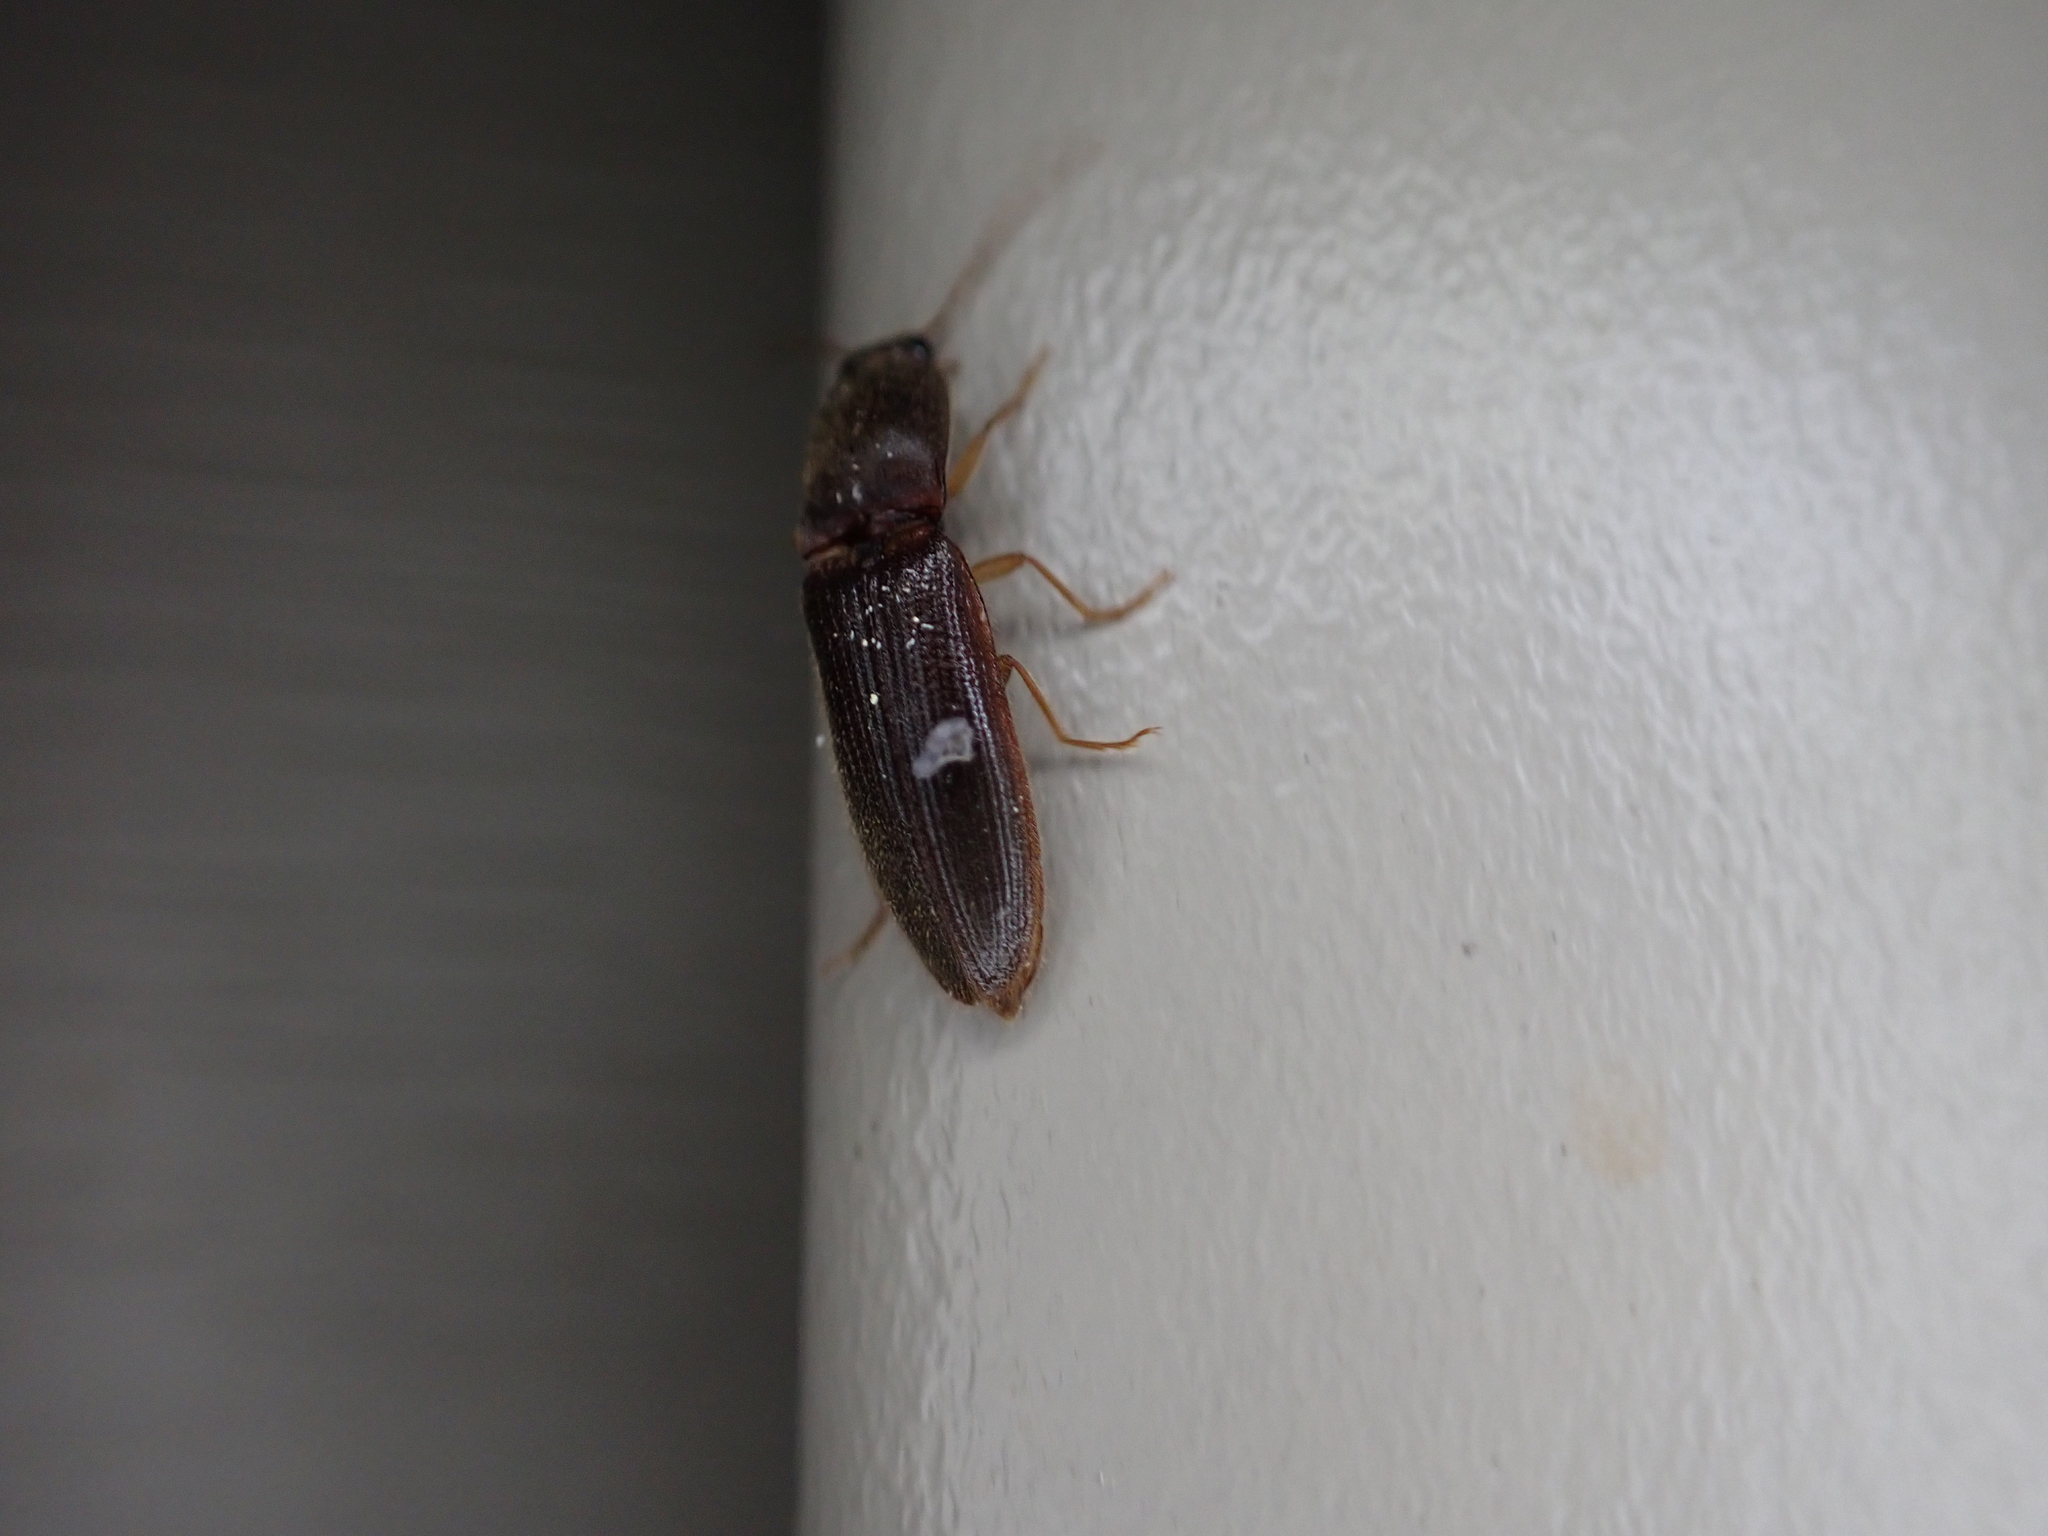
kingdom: Animalia
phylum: Arthropoda
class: Insecta
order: Coleoptera
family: Elateridae
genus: Athous
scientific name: Athous cucullatus
